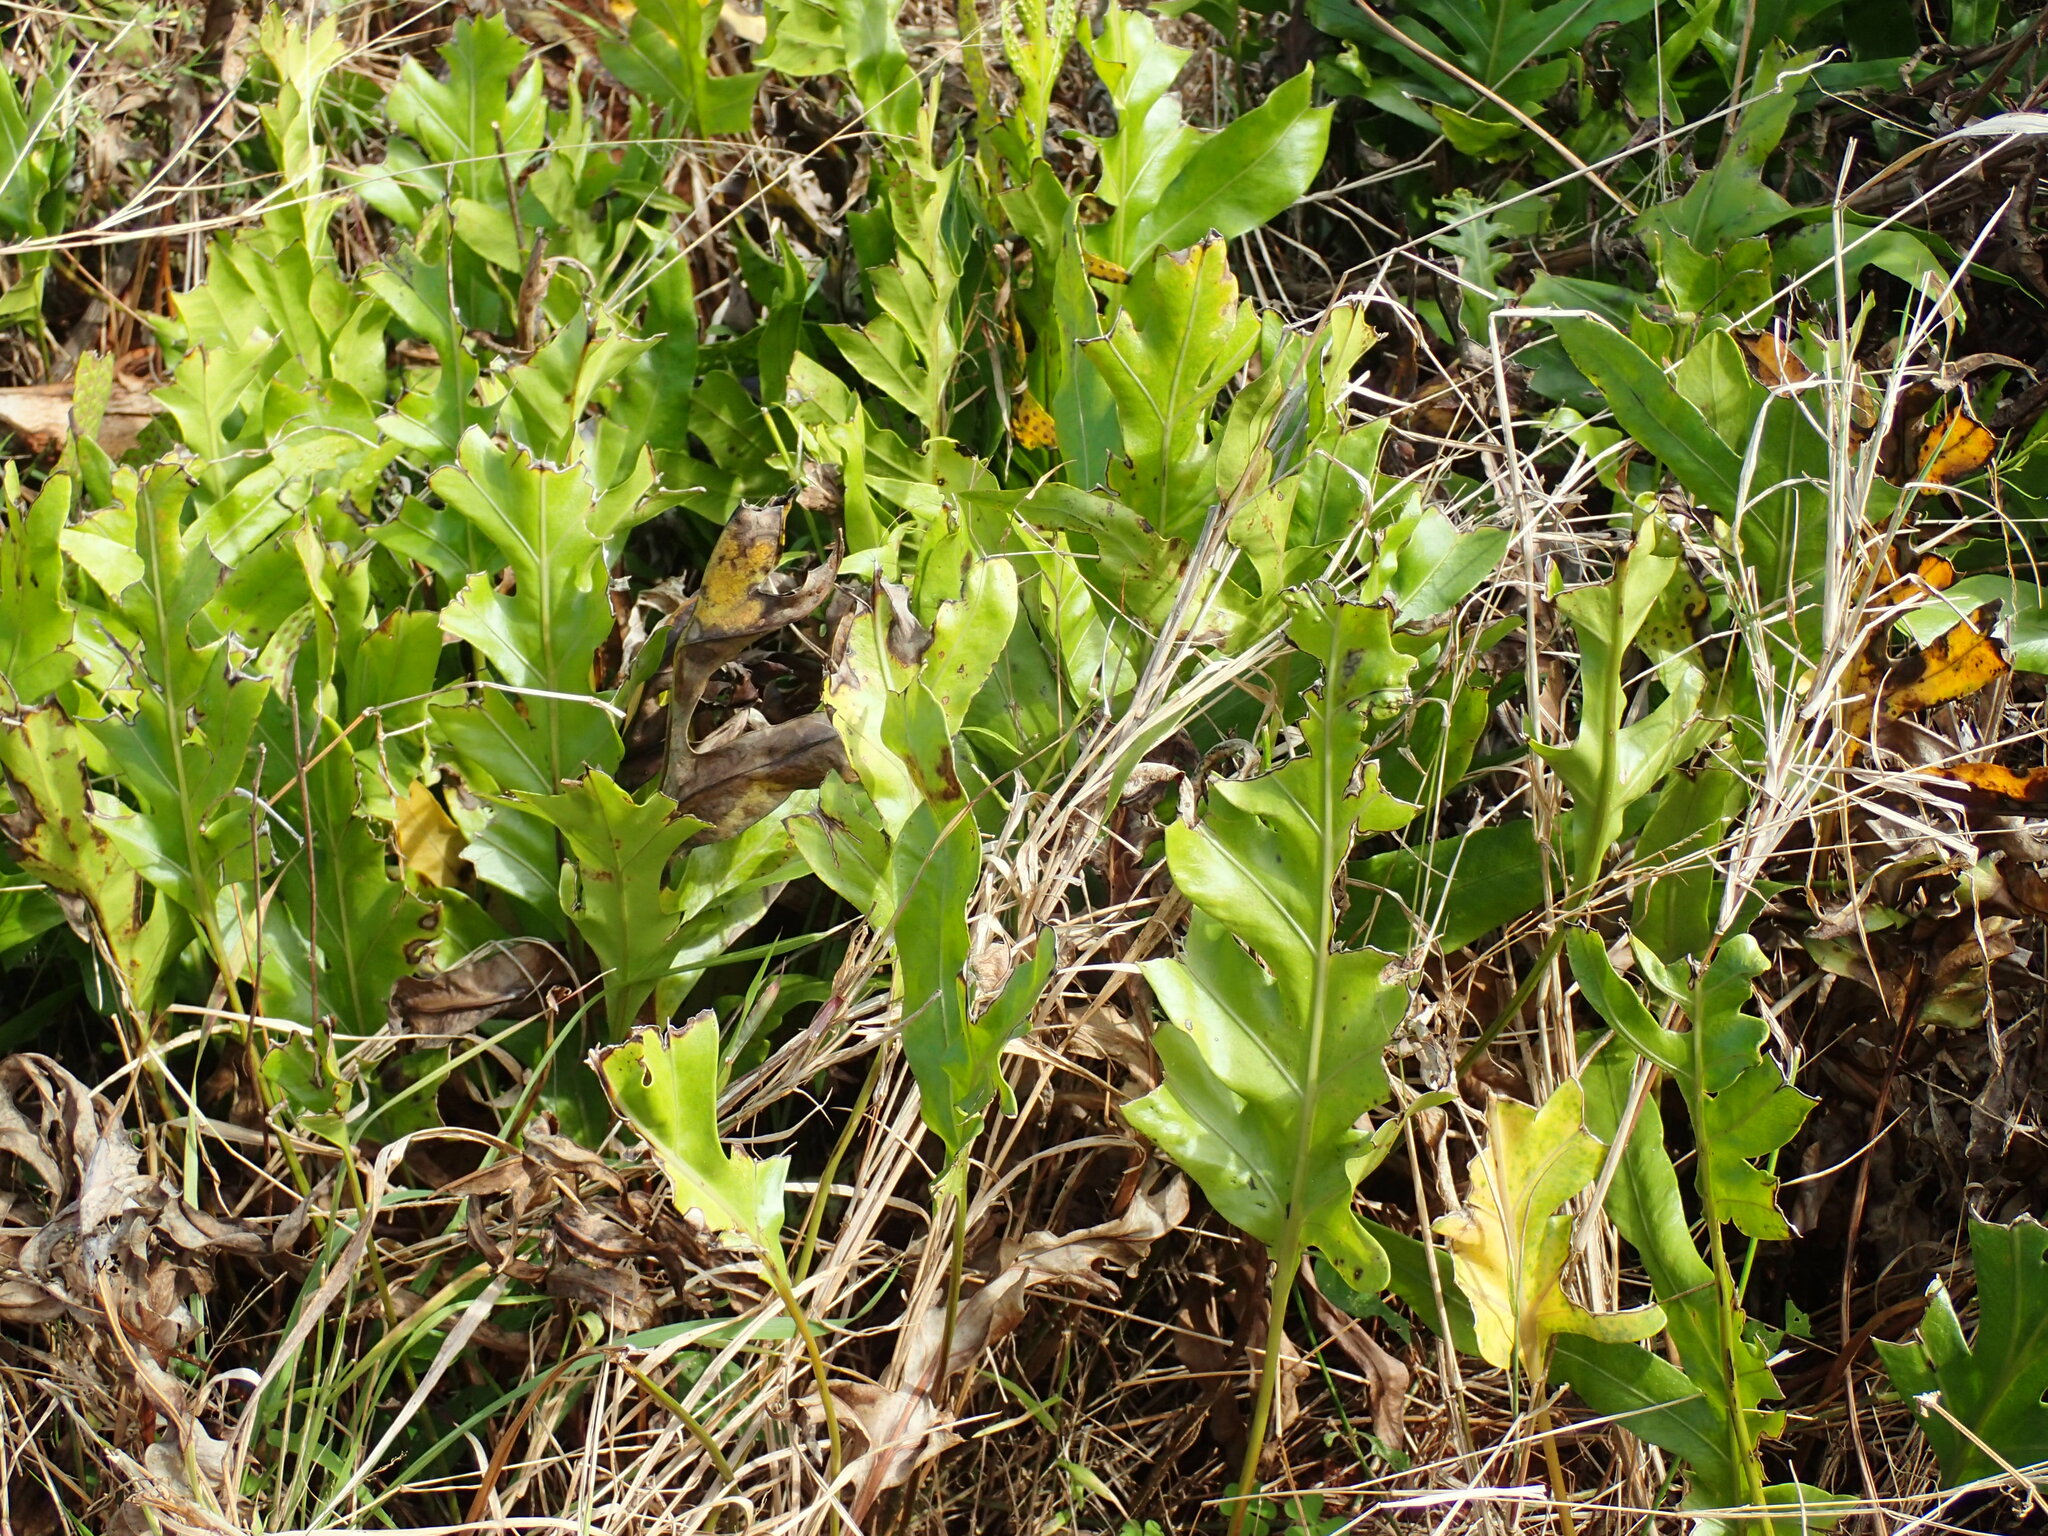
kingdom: Plantae
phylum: Tracheophyta
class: Polypodiopsida
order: Polypodiales
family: Polypodiaceae
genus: Microsorum
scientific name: Microsorum scolopendria
